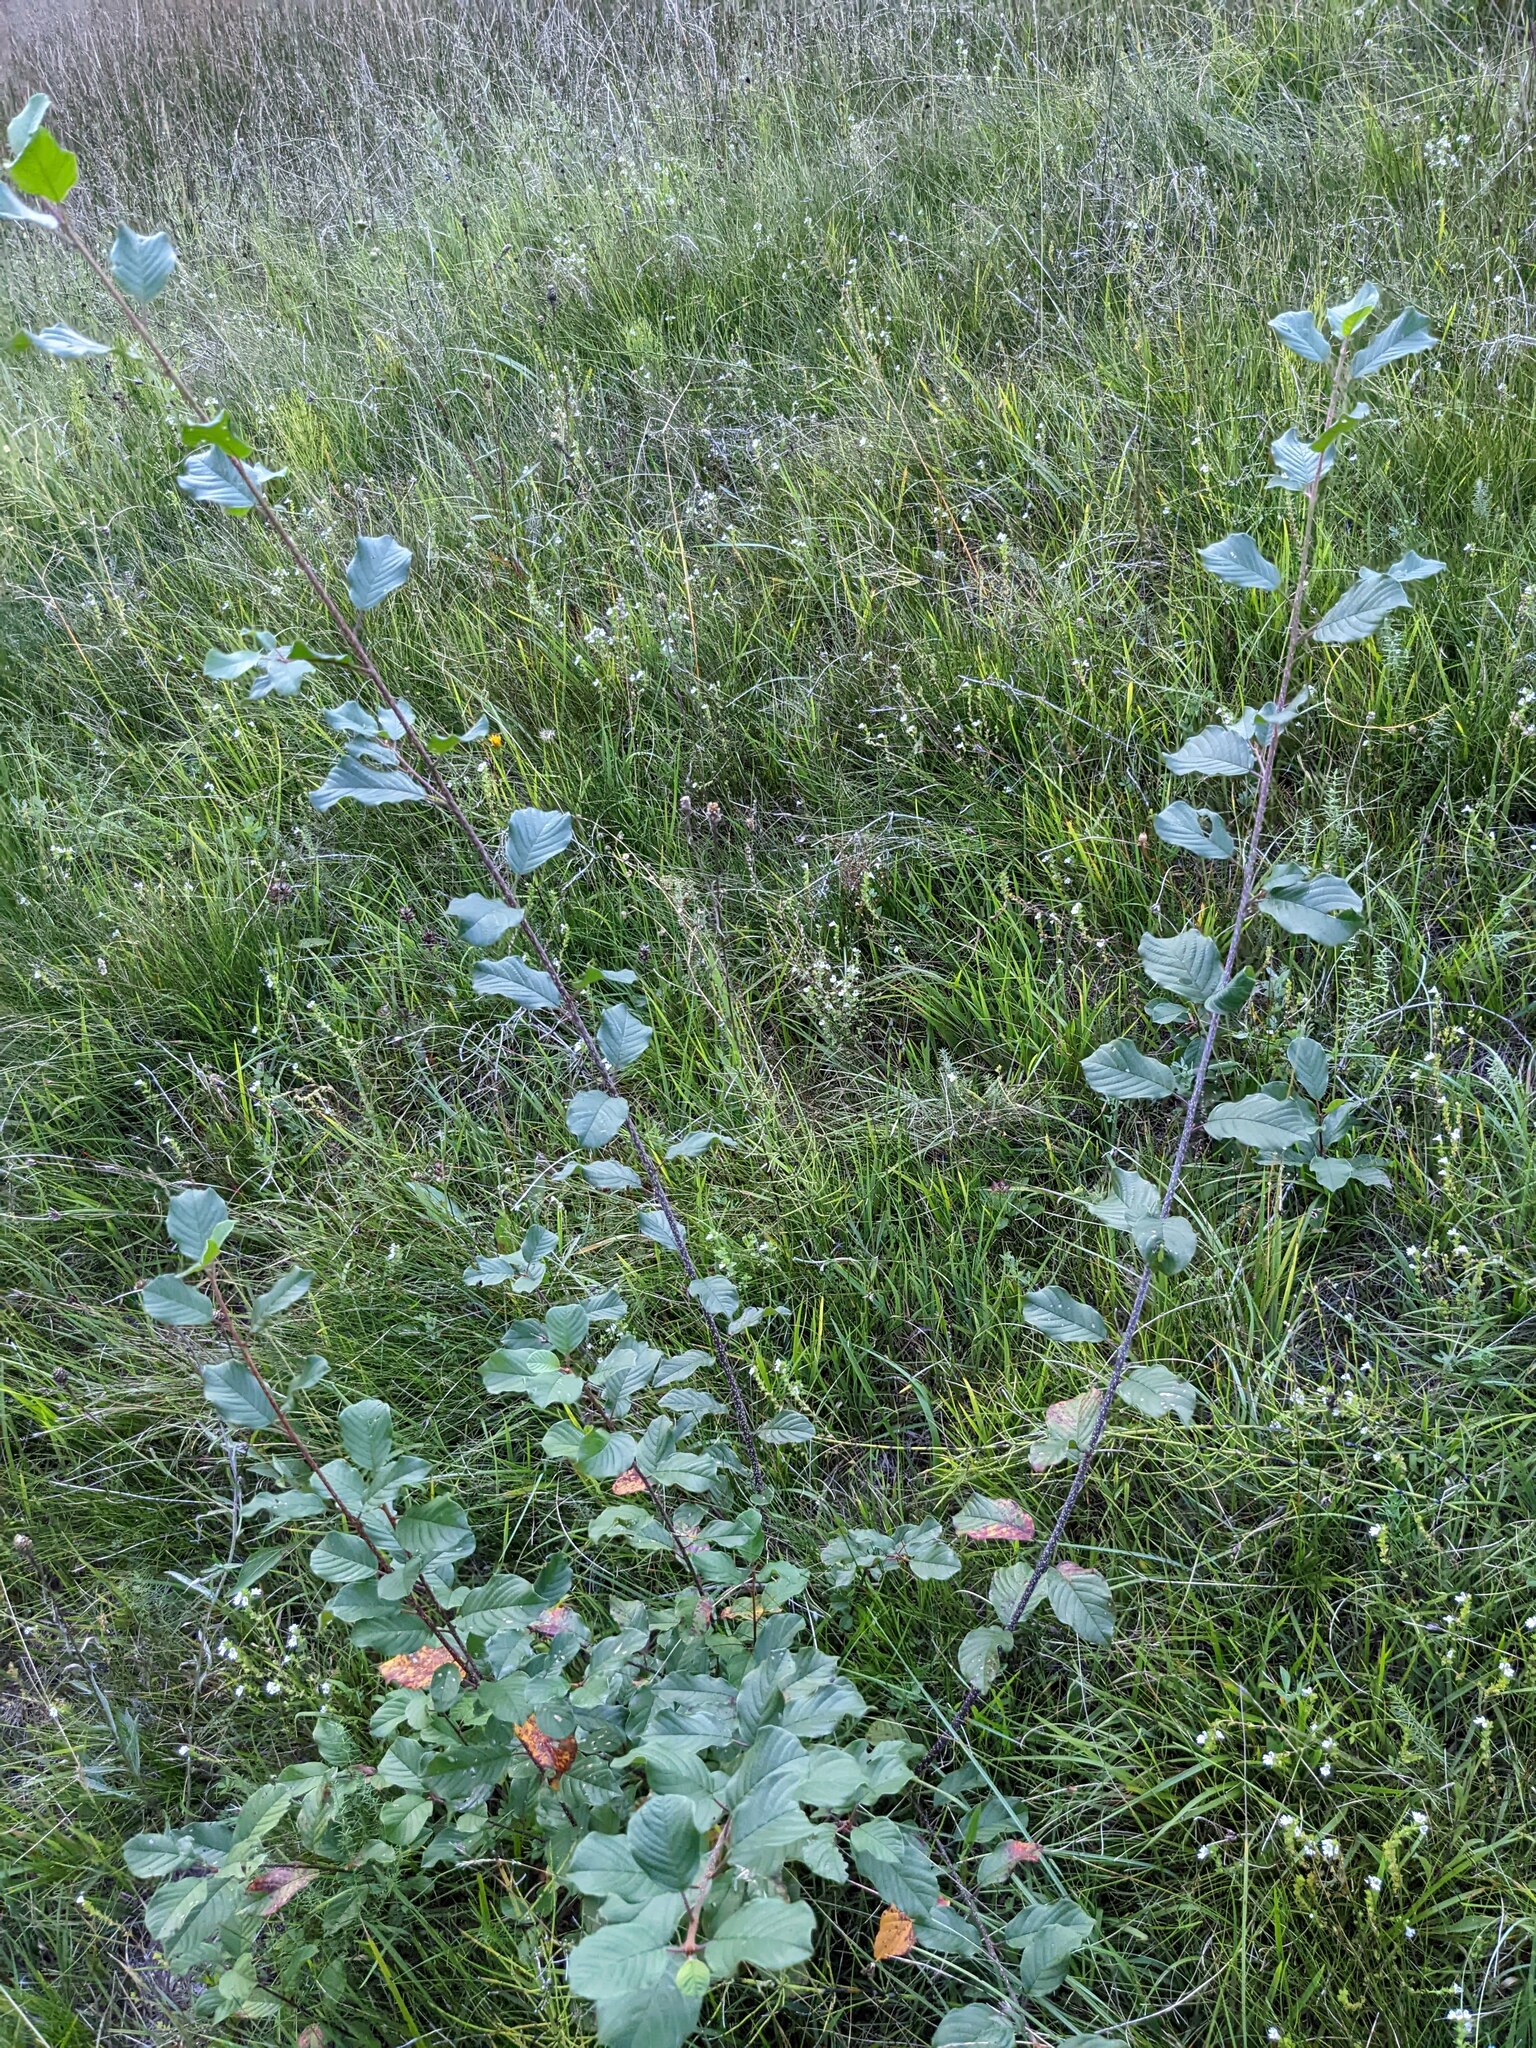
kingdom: Plantae
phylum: Tracheophyta
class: Magnoliopsida
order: Rosales
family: Rhamnaceae
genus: Frangula
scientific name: Frangula alnus
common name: Alder buckthorn
